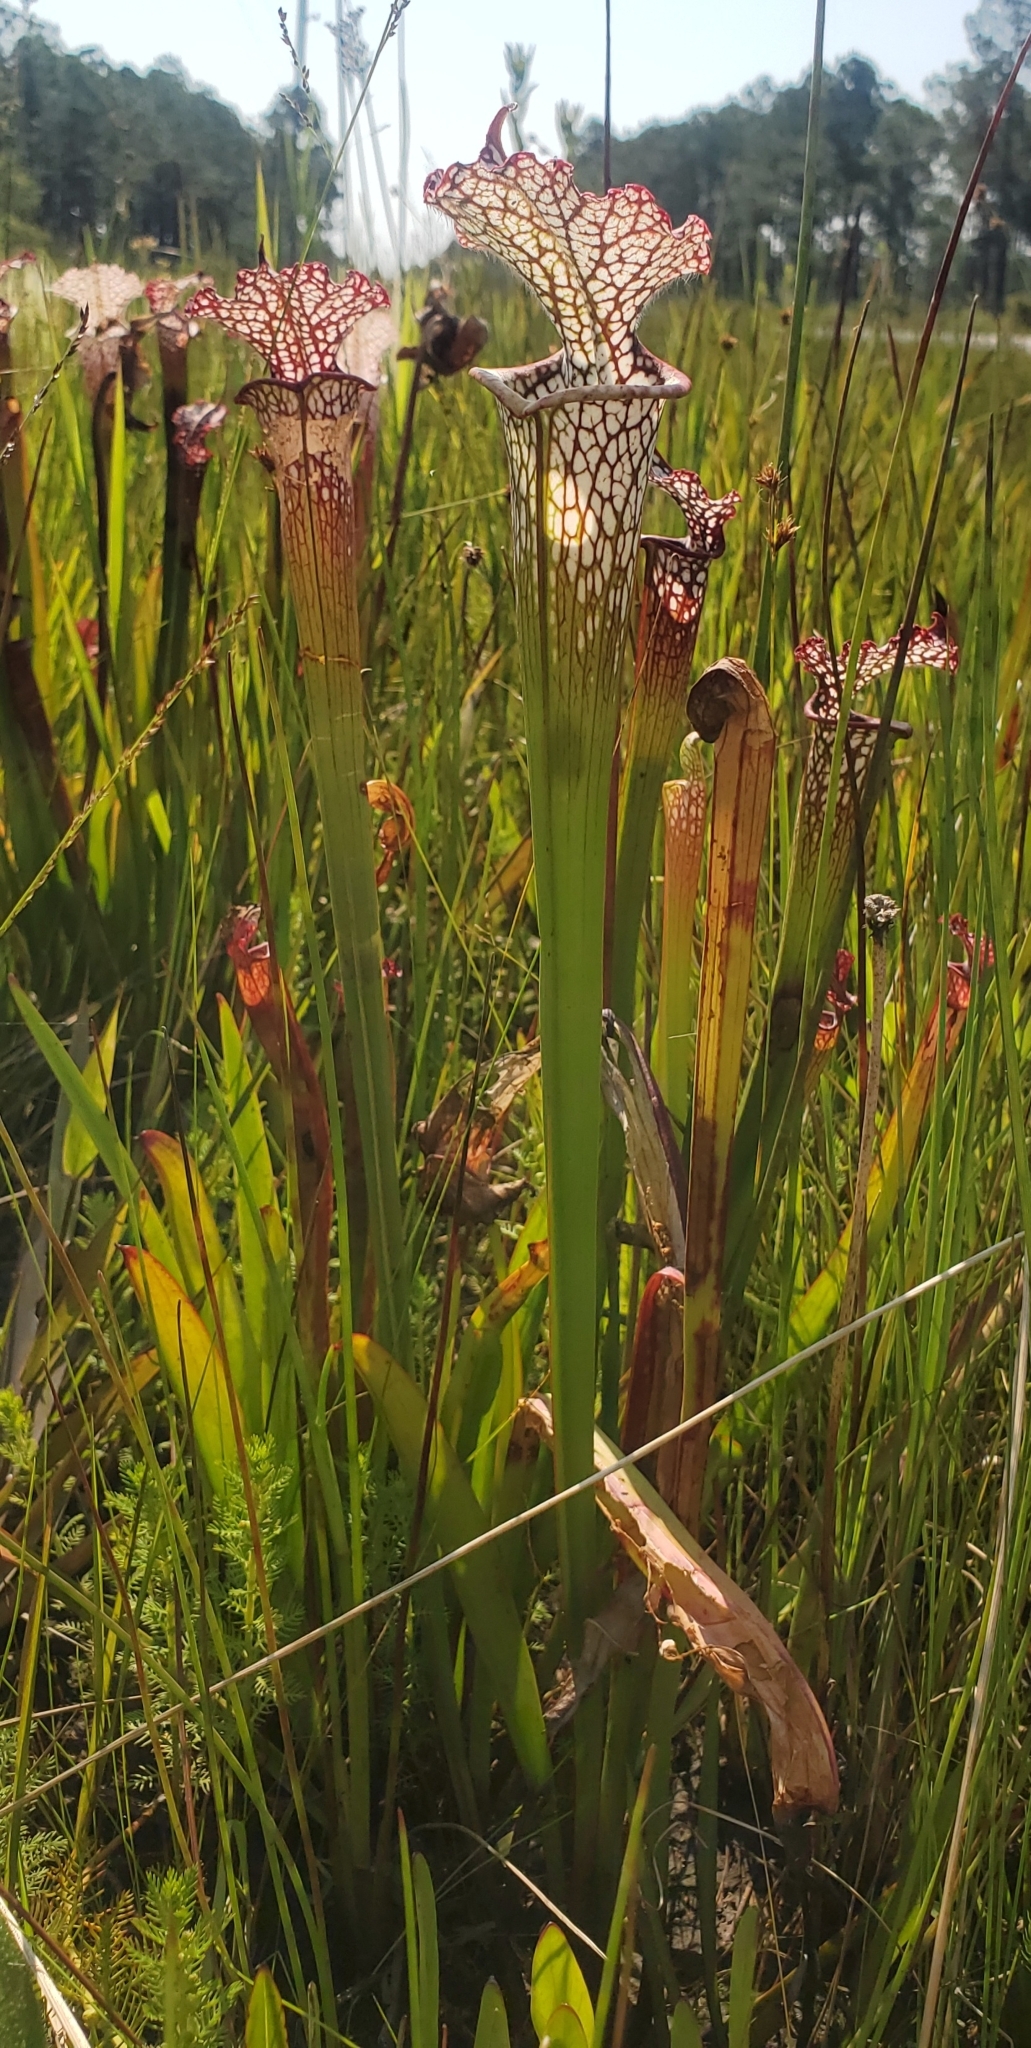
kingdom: Plantae
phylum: Tracheophyta
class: Magnoliopsida
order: Ericales
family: Sarraceniaceae
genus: Sarracenia
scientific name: Sarracenia leucophylla
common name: Purple trumpetleaf
